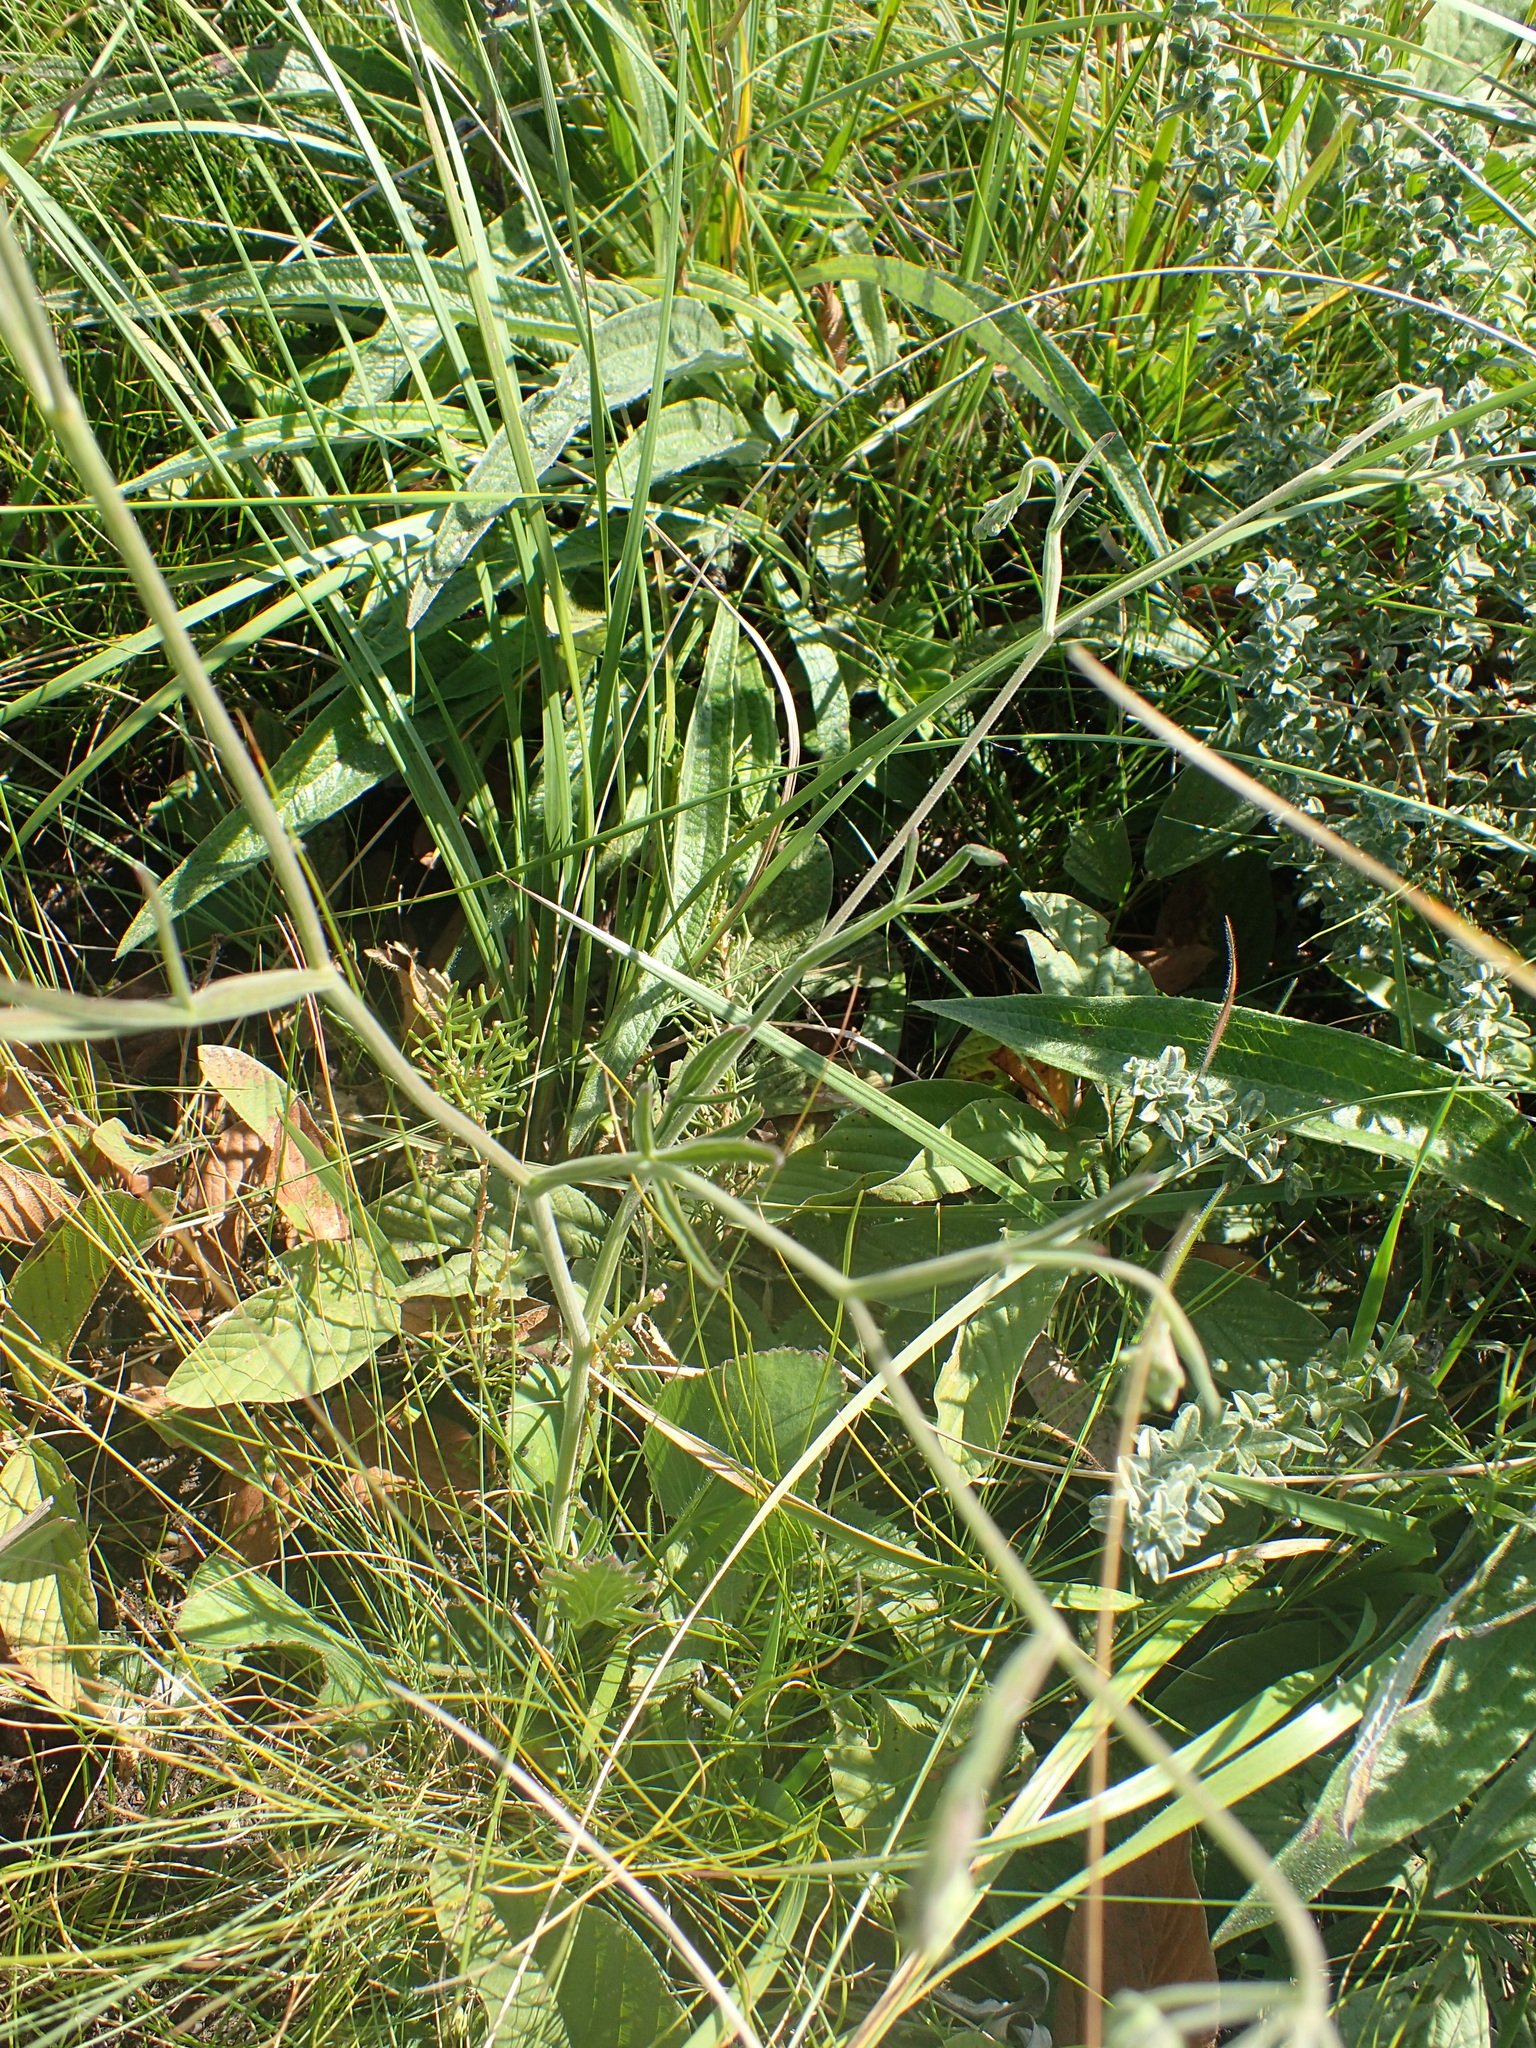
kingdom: Plantae
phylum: Tracheophyta
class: Magnoliopsida
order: Apiales
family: Apiaceae
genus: Pimpinella
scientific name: Pimpinella caffra
